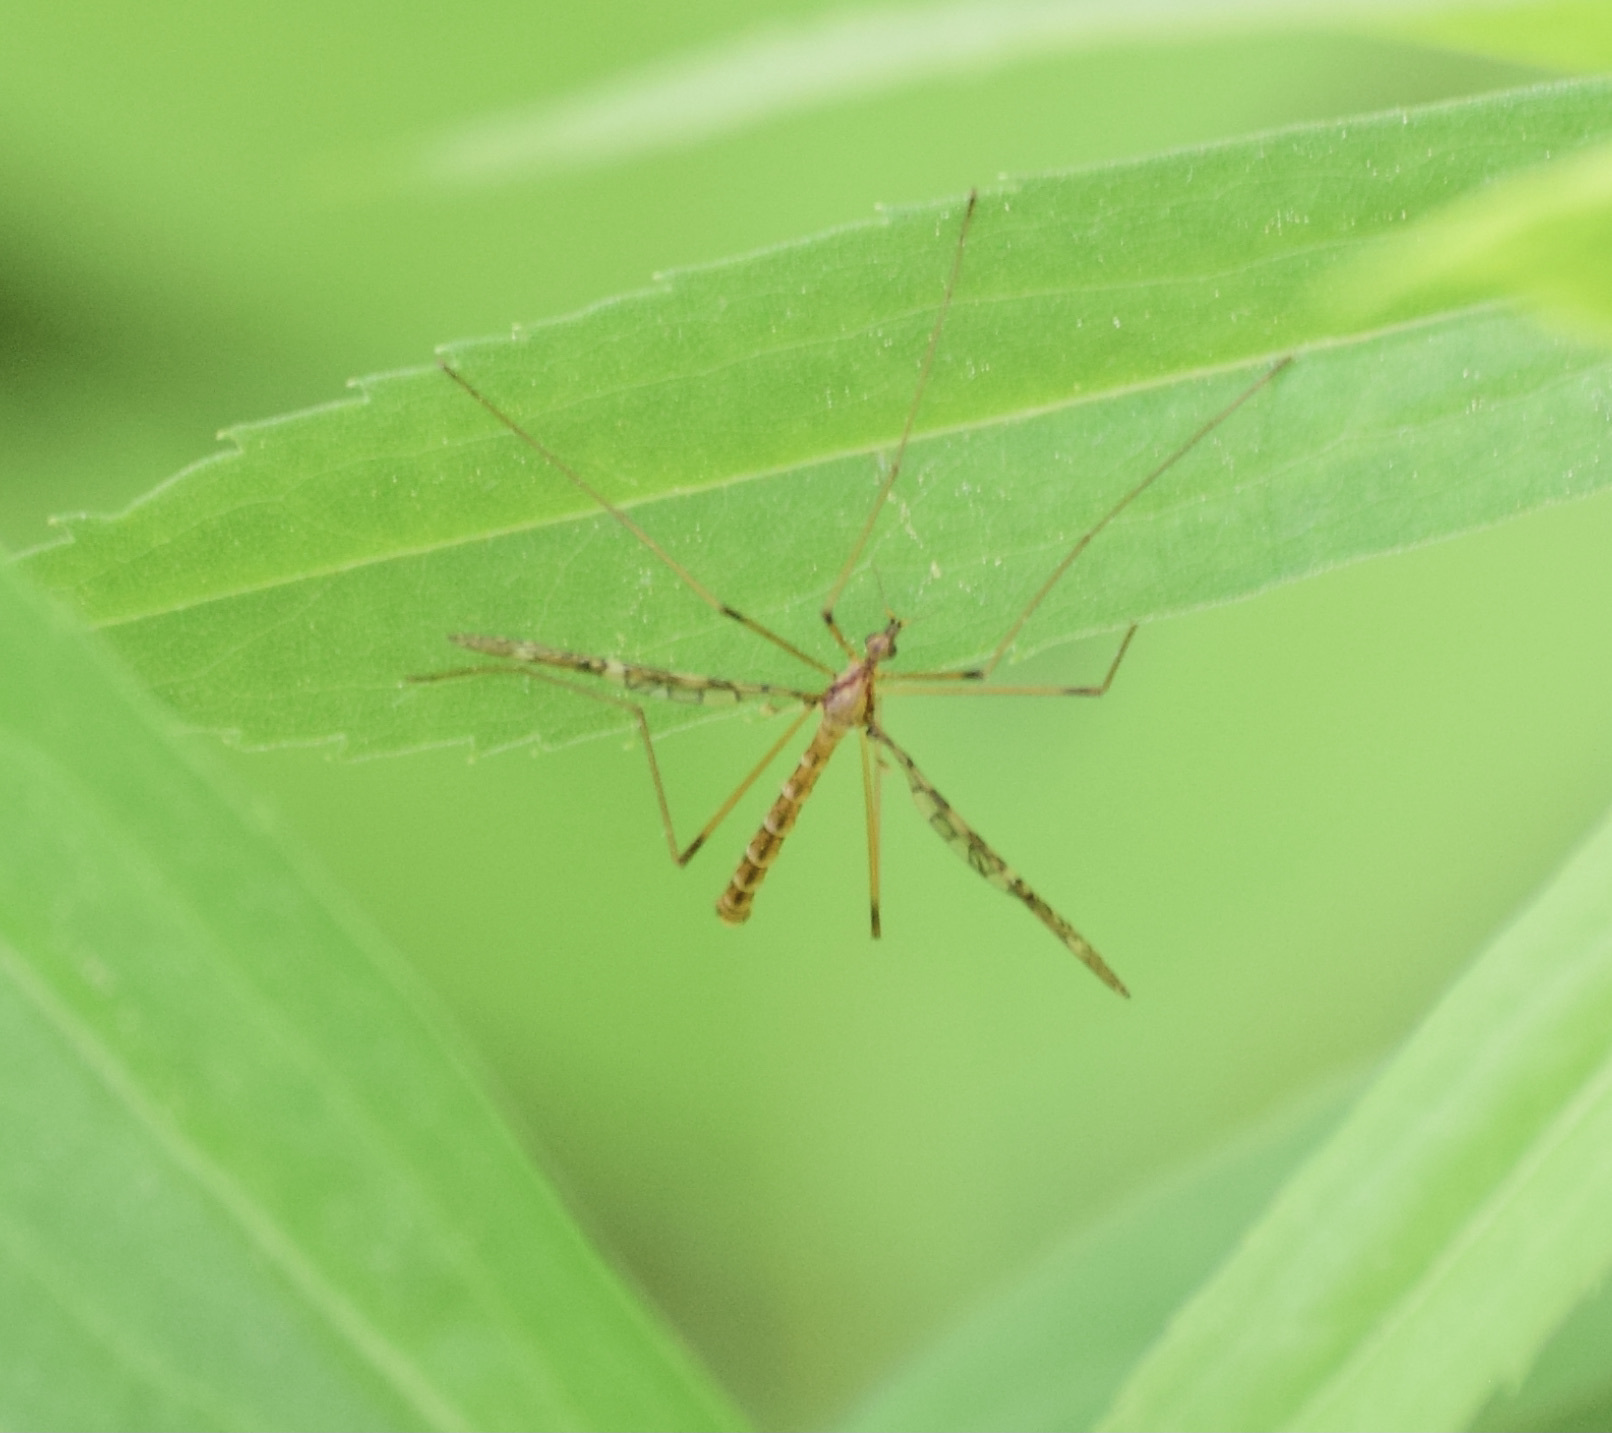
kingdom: Animalia
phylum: Arthropoda
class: Insecta
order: Diptera
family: Limoniidae
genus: Epiphragma
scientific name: Epiphragma fasciapenne
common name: Band-winged crane fly
